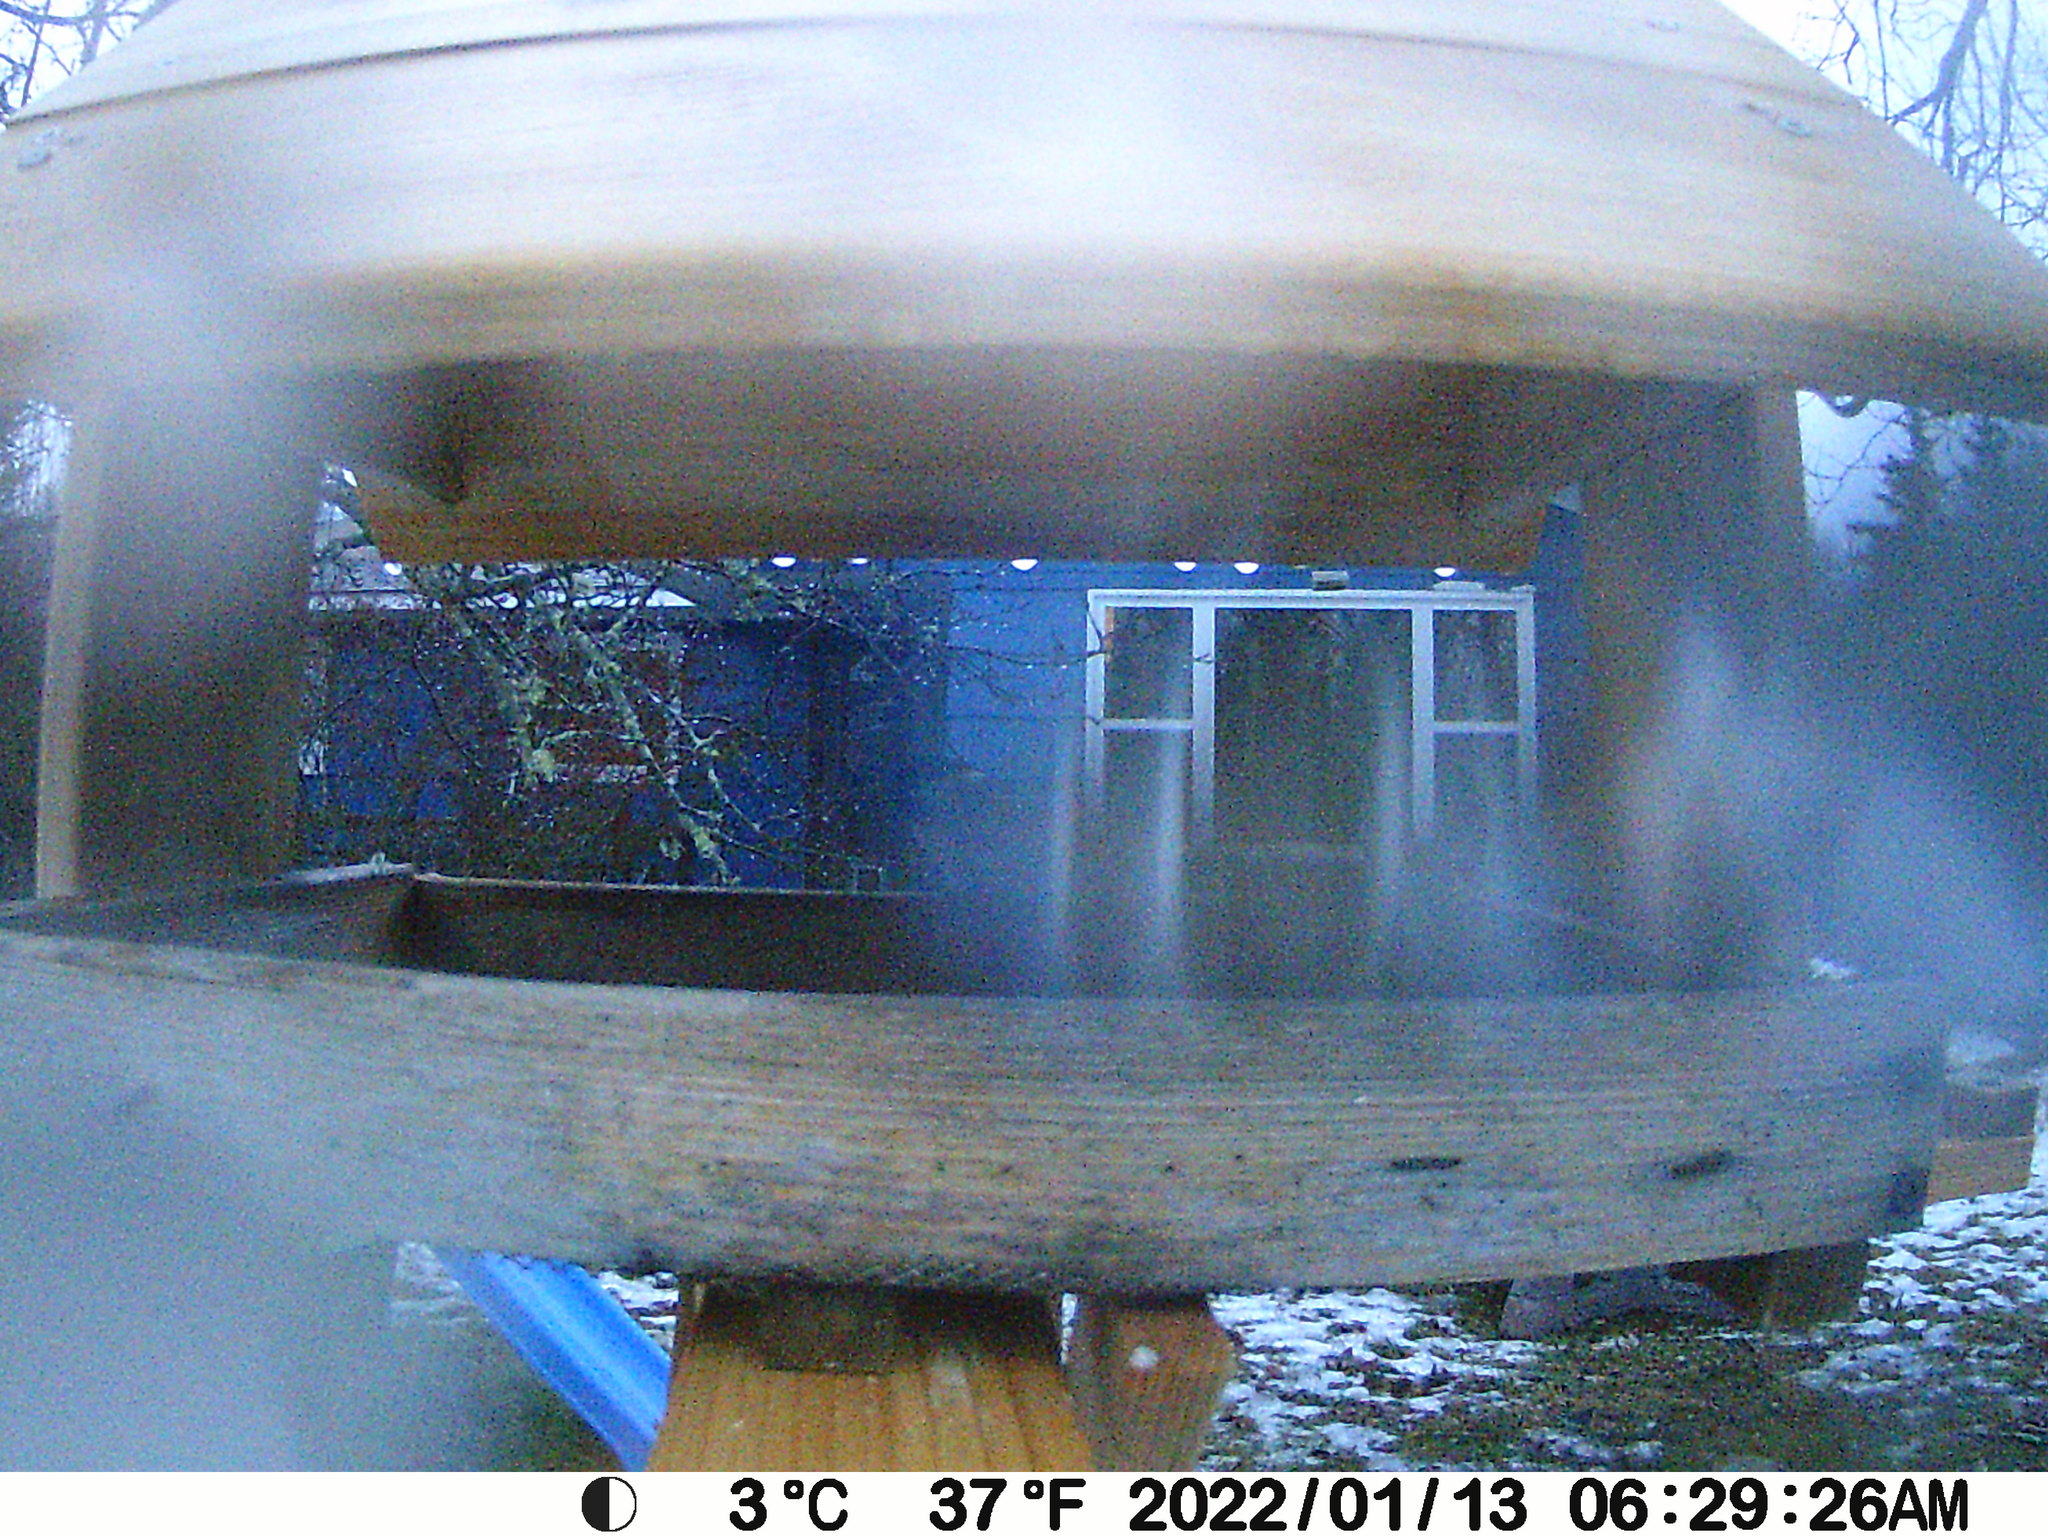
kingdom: Animalia
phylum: Chordata
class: Aves
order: Passeriformes
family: Passerellidae
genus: Junco
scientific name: Junco hyemalis
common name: Dark-eyed junco
